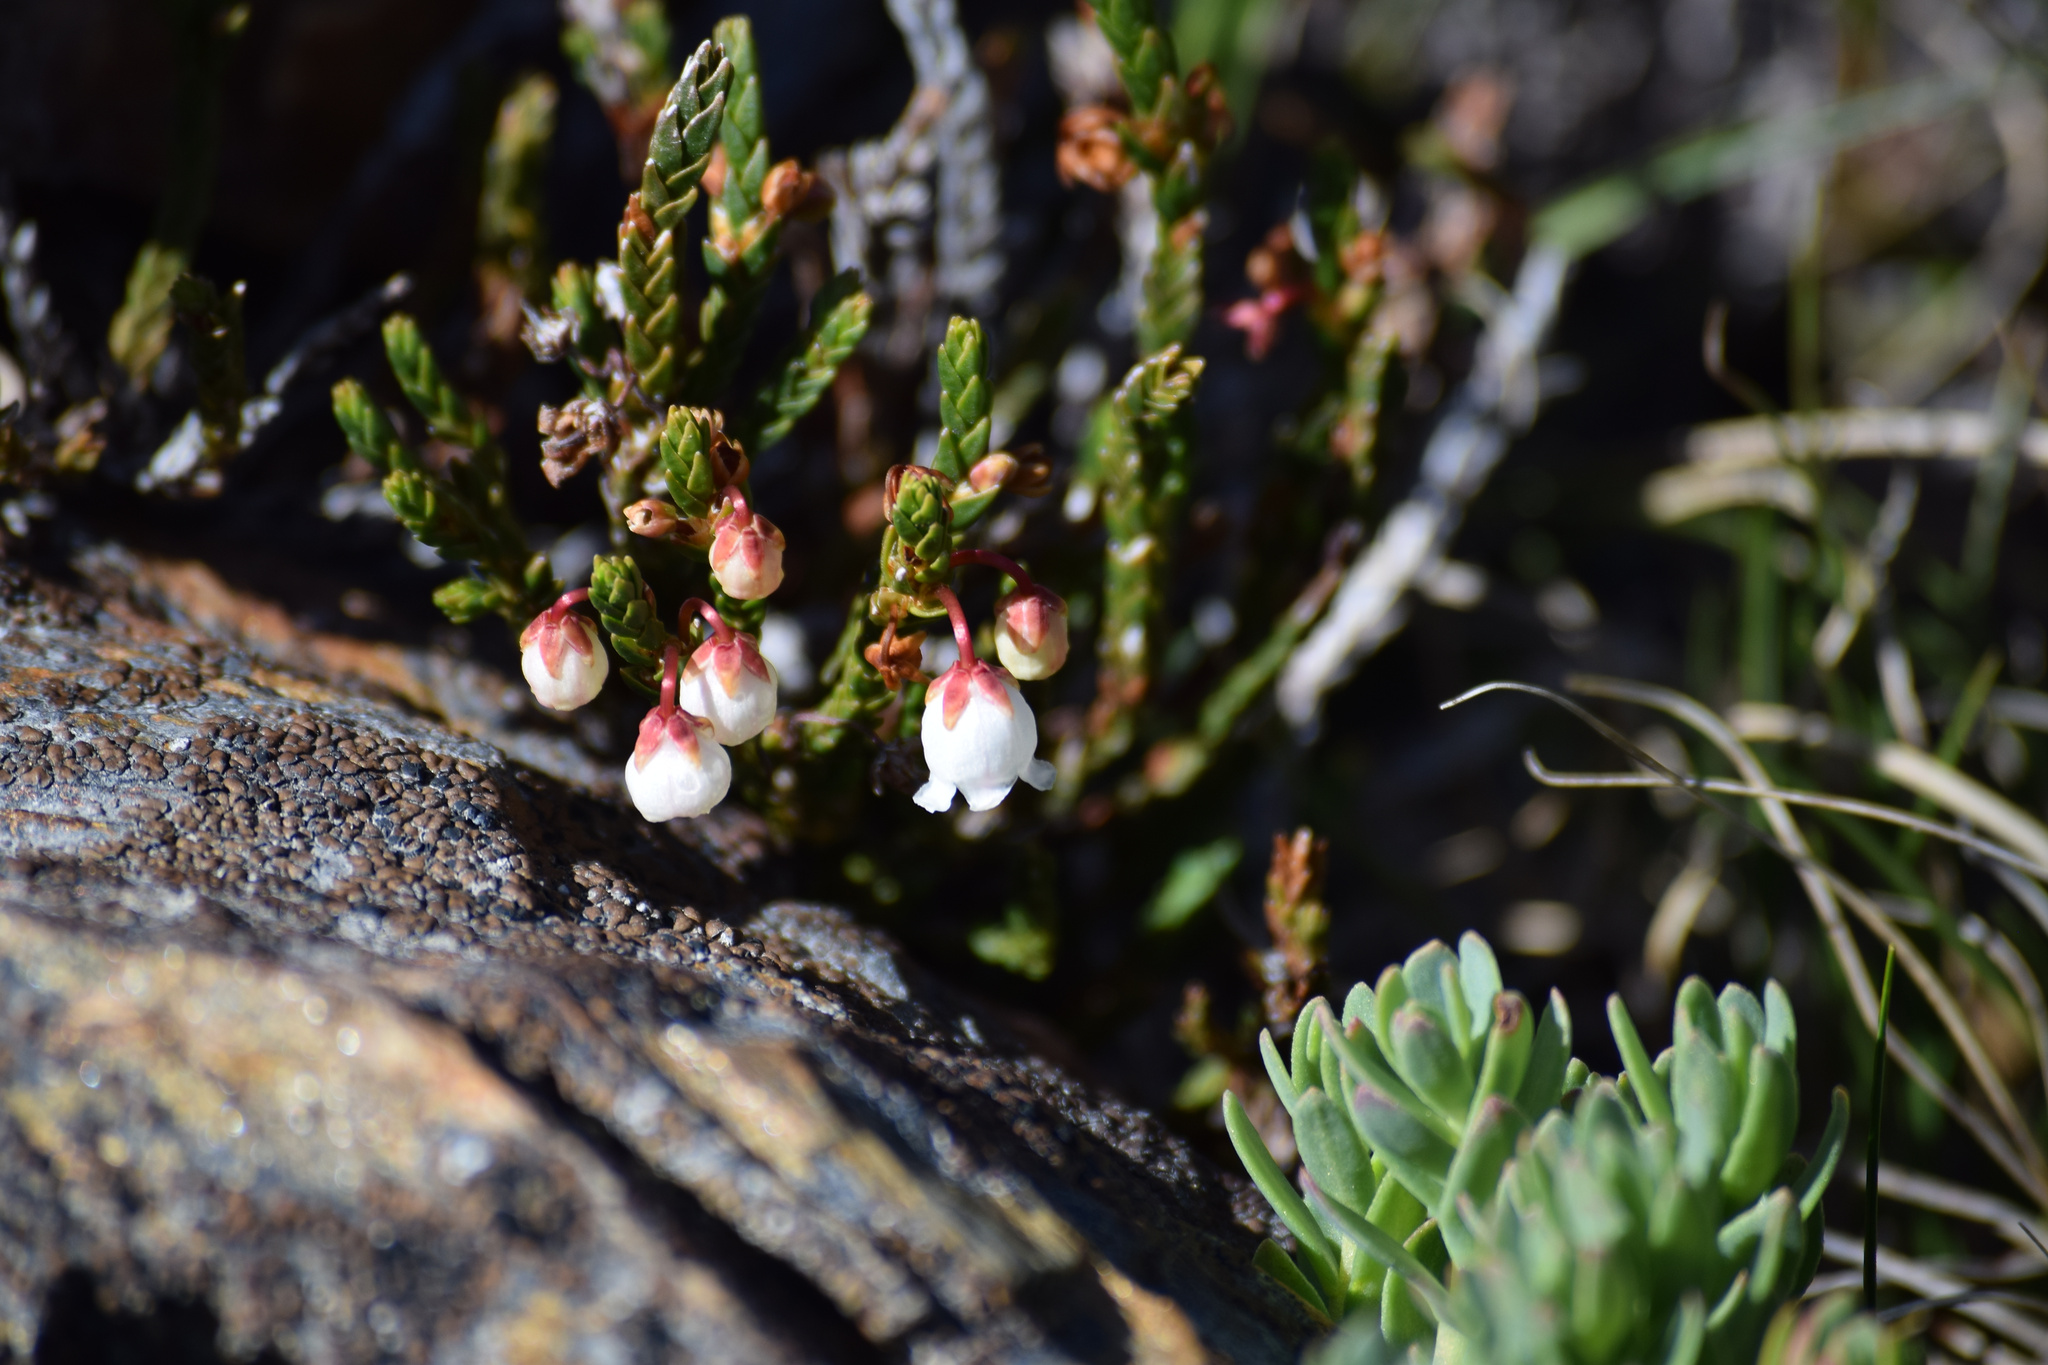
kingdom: Plantae
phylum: Tracheophyta
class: Magnoliopsida
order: Ericales
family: Ericaceae
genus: Cassiope
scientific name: Cassiope mertensiana
